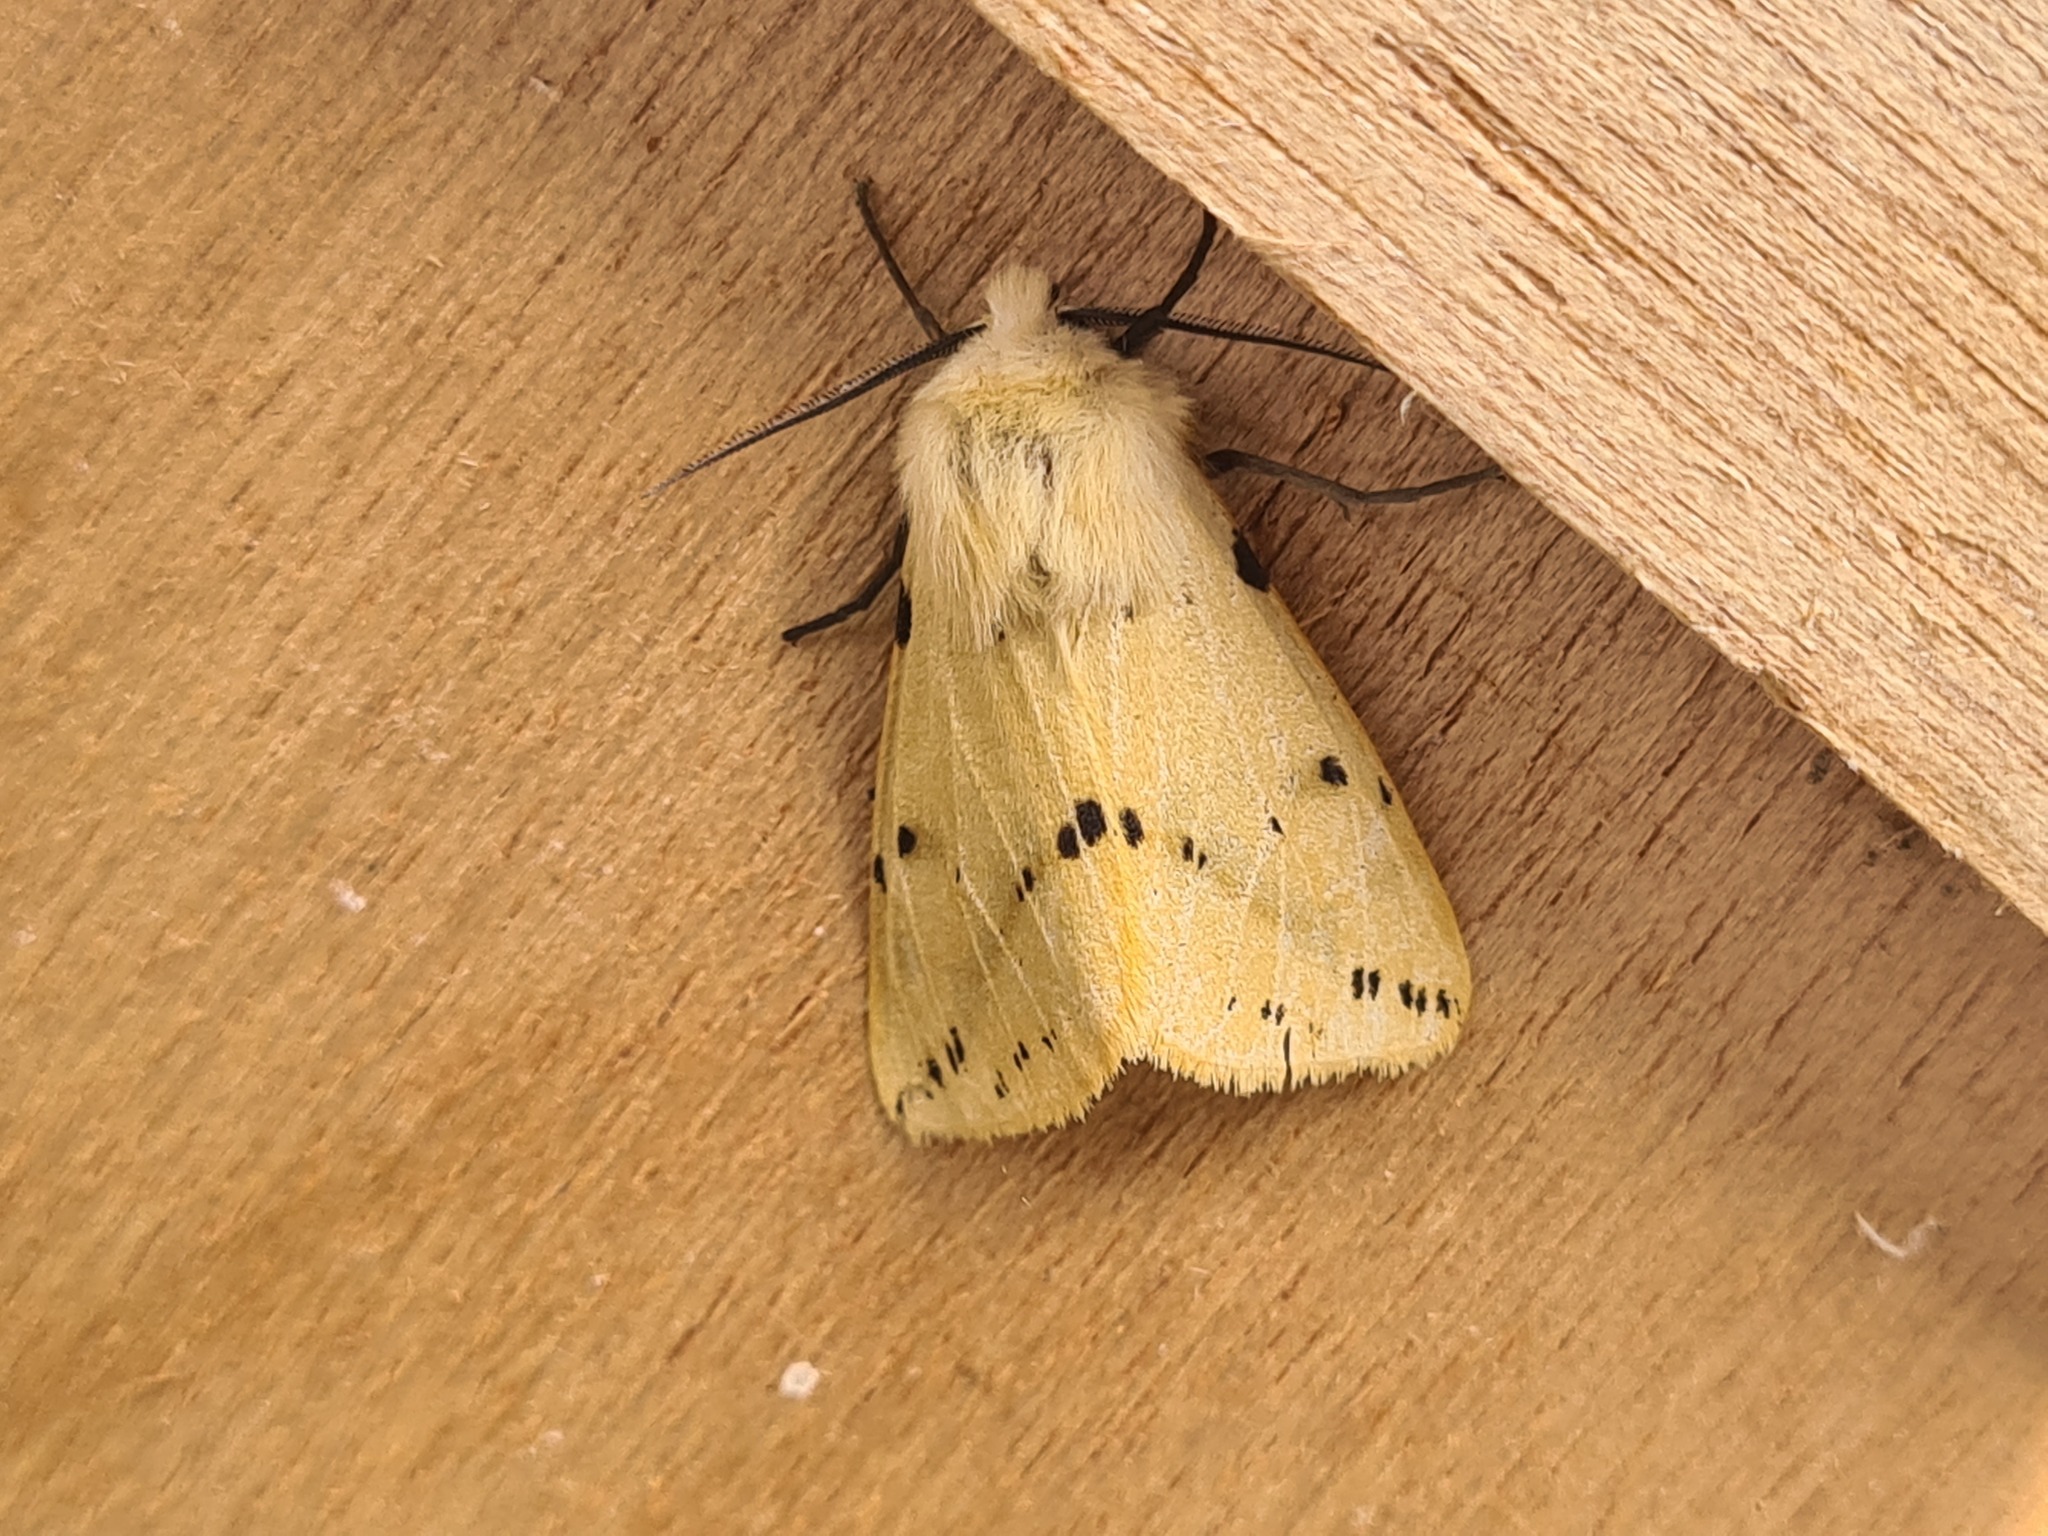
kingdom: Animalia
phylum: Arthropoda
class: Insecta
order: Lepidoptera
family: Erebidae
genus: Spilarctia
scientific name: Spilarctia lutea
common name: Buff ermine
